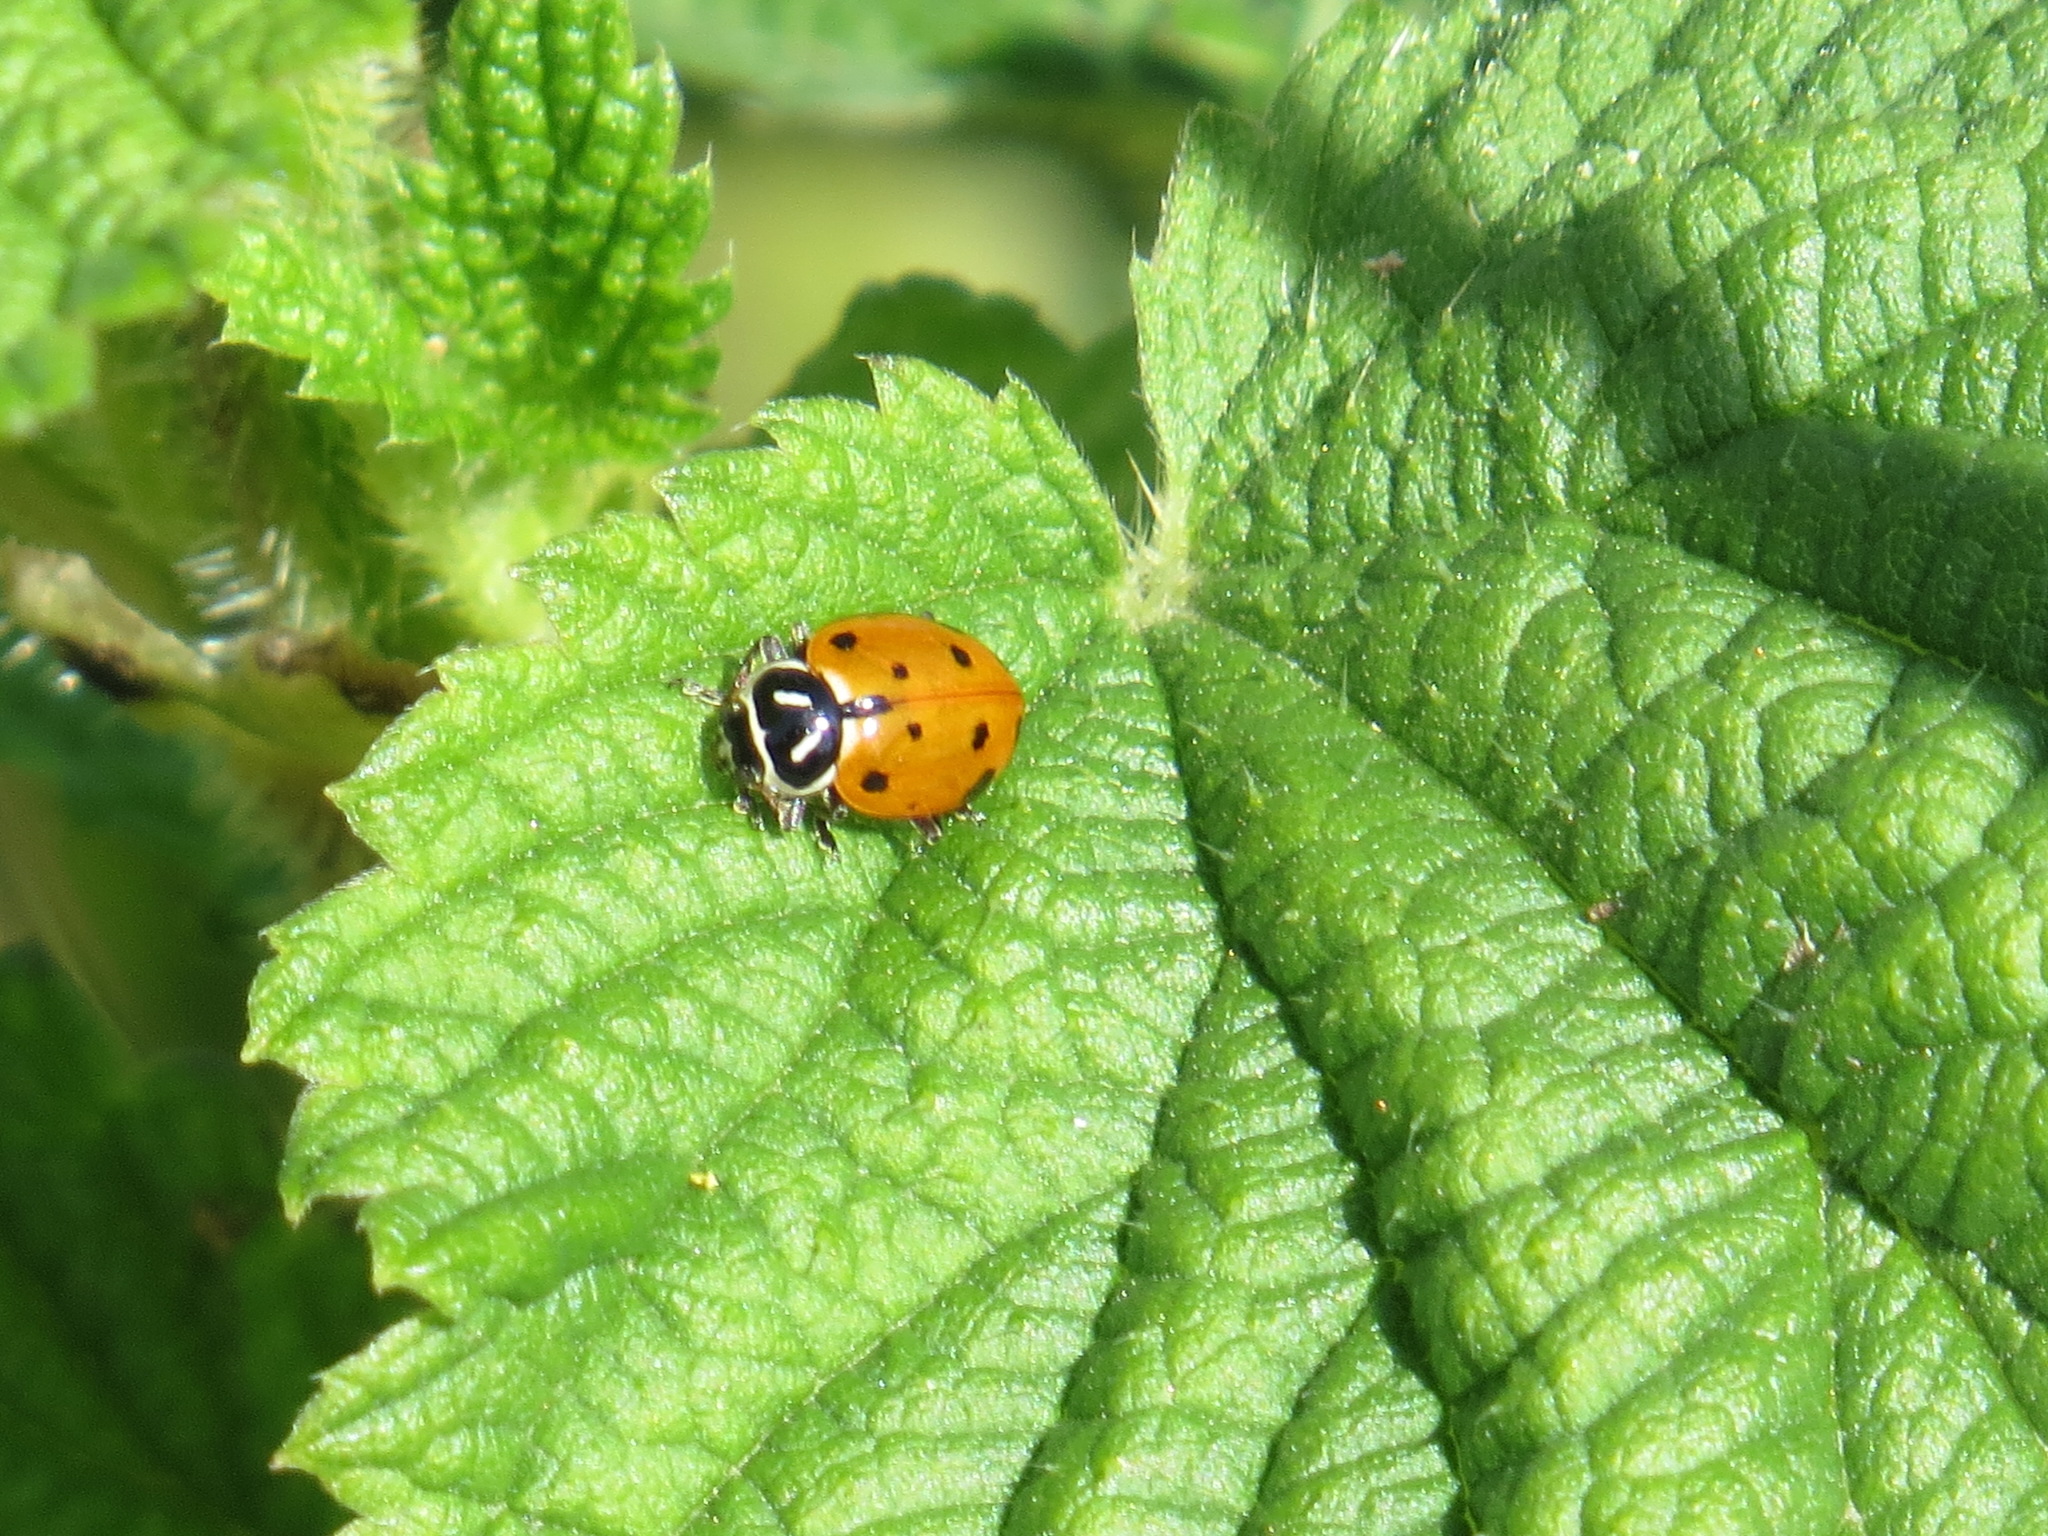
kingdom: Animalia
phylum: Arthropoda
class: Insecta
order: Coleoptera
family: Coccinellidae
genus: Hippodamia
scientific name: Hippodamia convergens
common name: Convergent lady beetle
